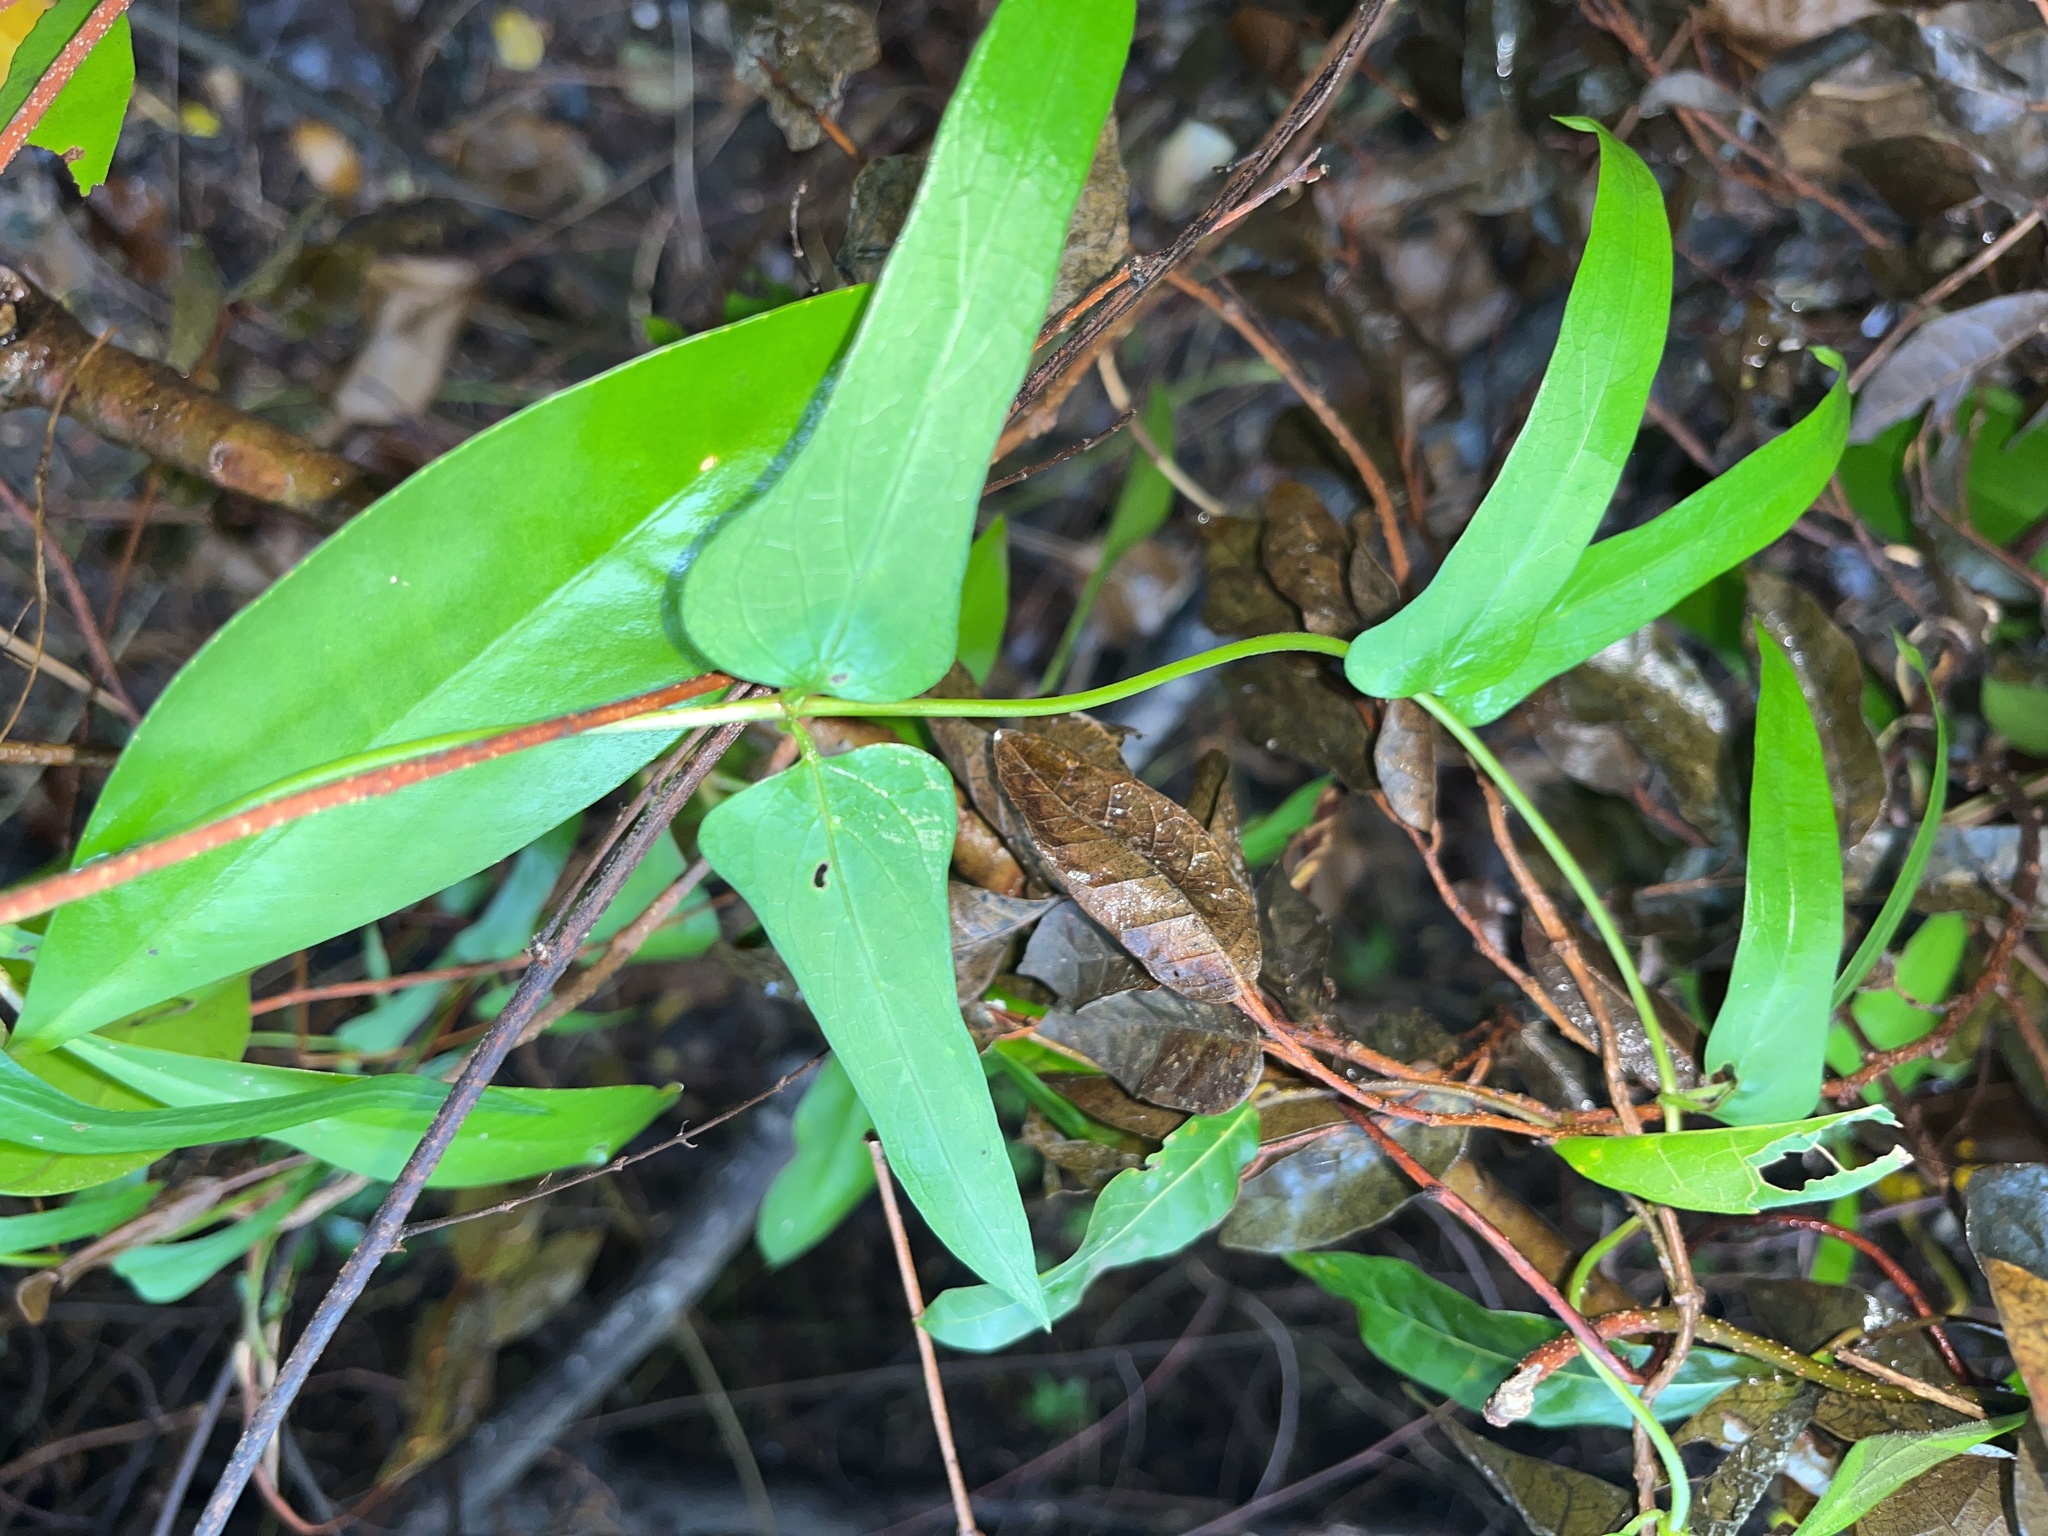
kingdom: Plantae
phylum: Tracheophyta
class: Magnoliopsida
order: Gentianales
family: Rubiaceae
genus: Paederia
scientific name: Paederia foetida
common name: Stinkvine
